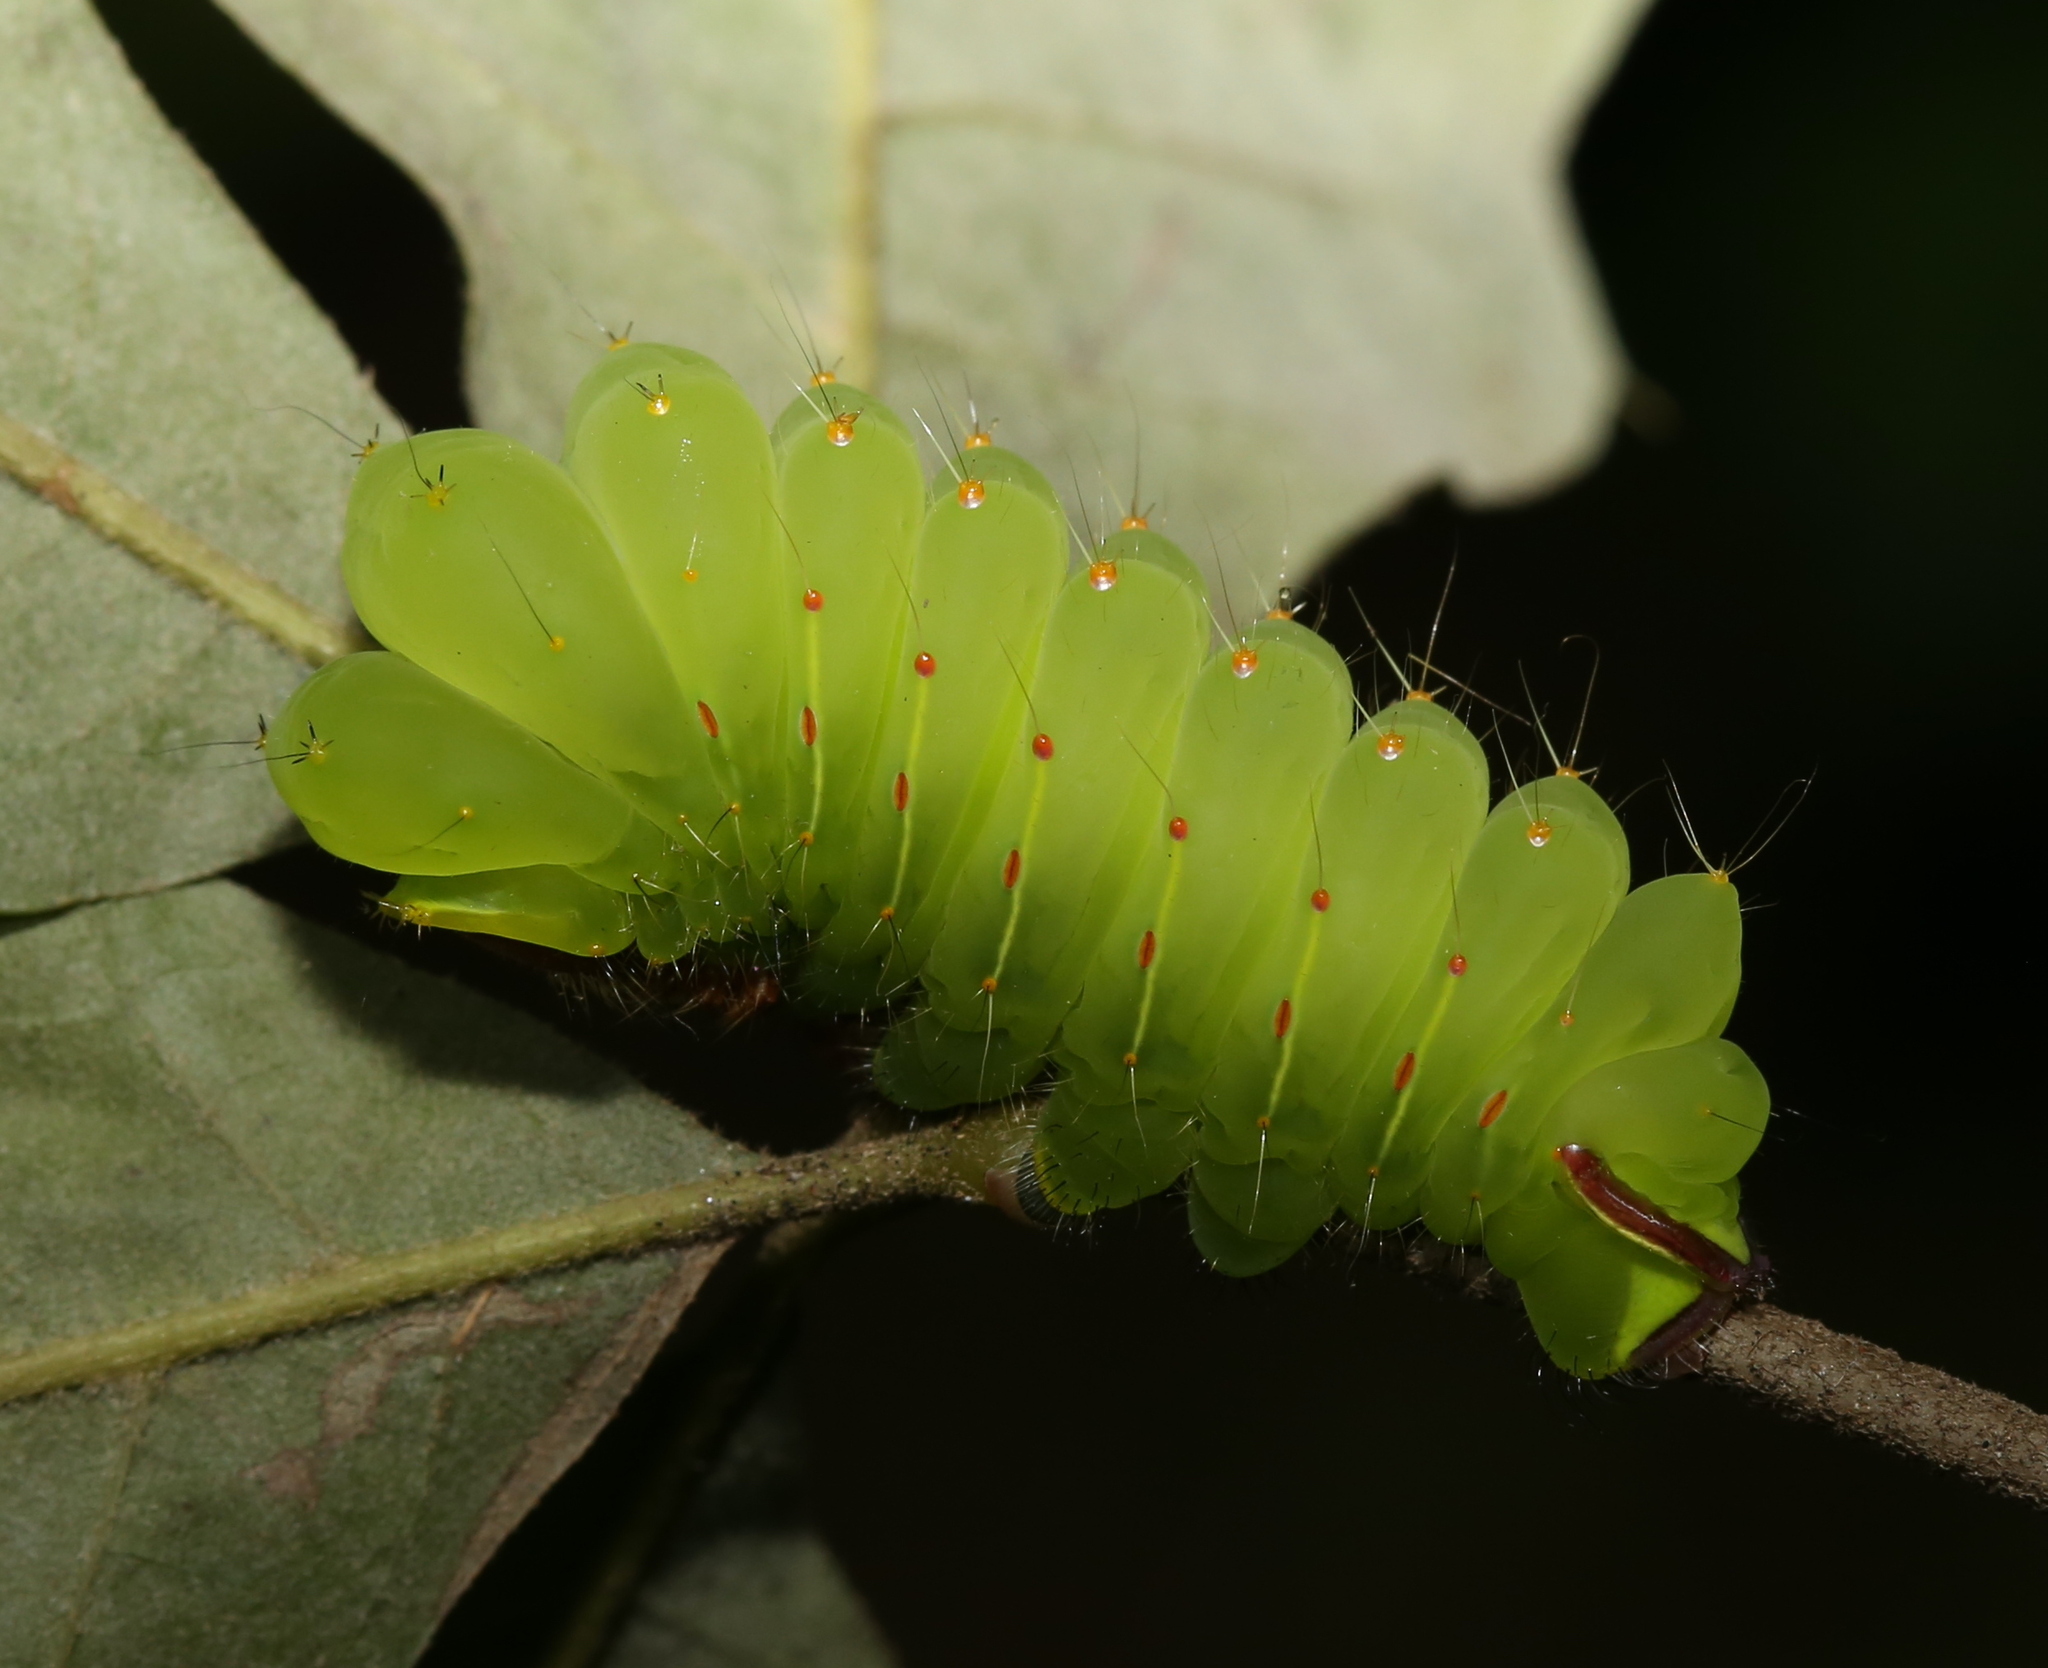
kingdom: Animalia
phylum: Arthropoda
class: Insecta
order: Lepidoptera
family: Saturniidae
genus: Antheraea
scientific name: Antheraea polyphemus
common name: Polyphemus moth
